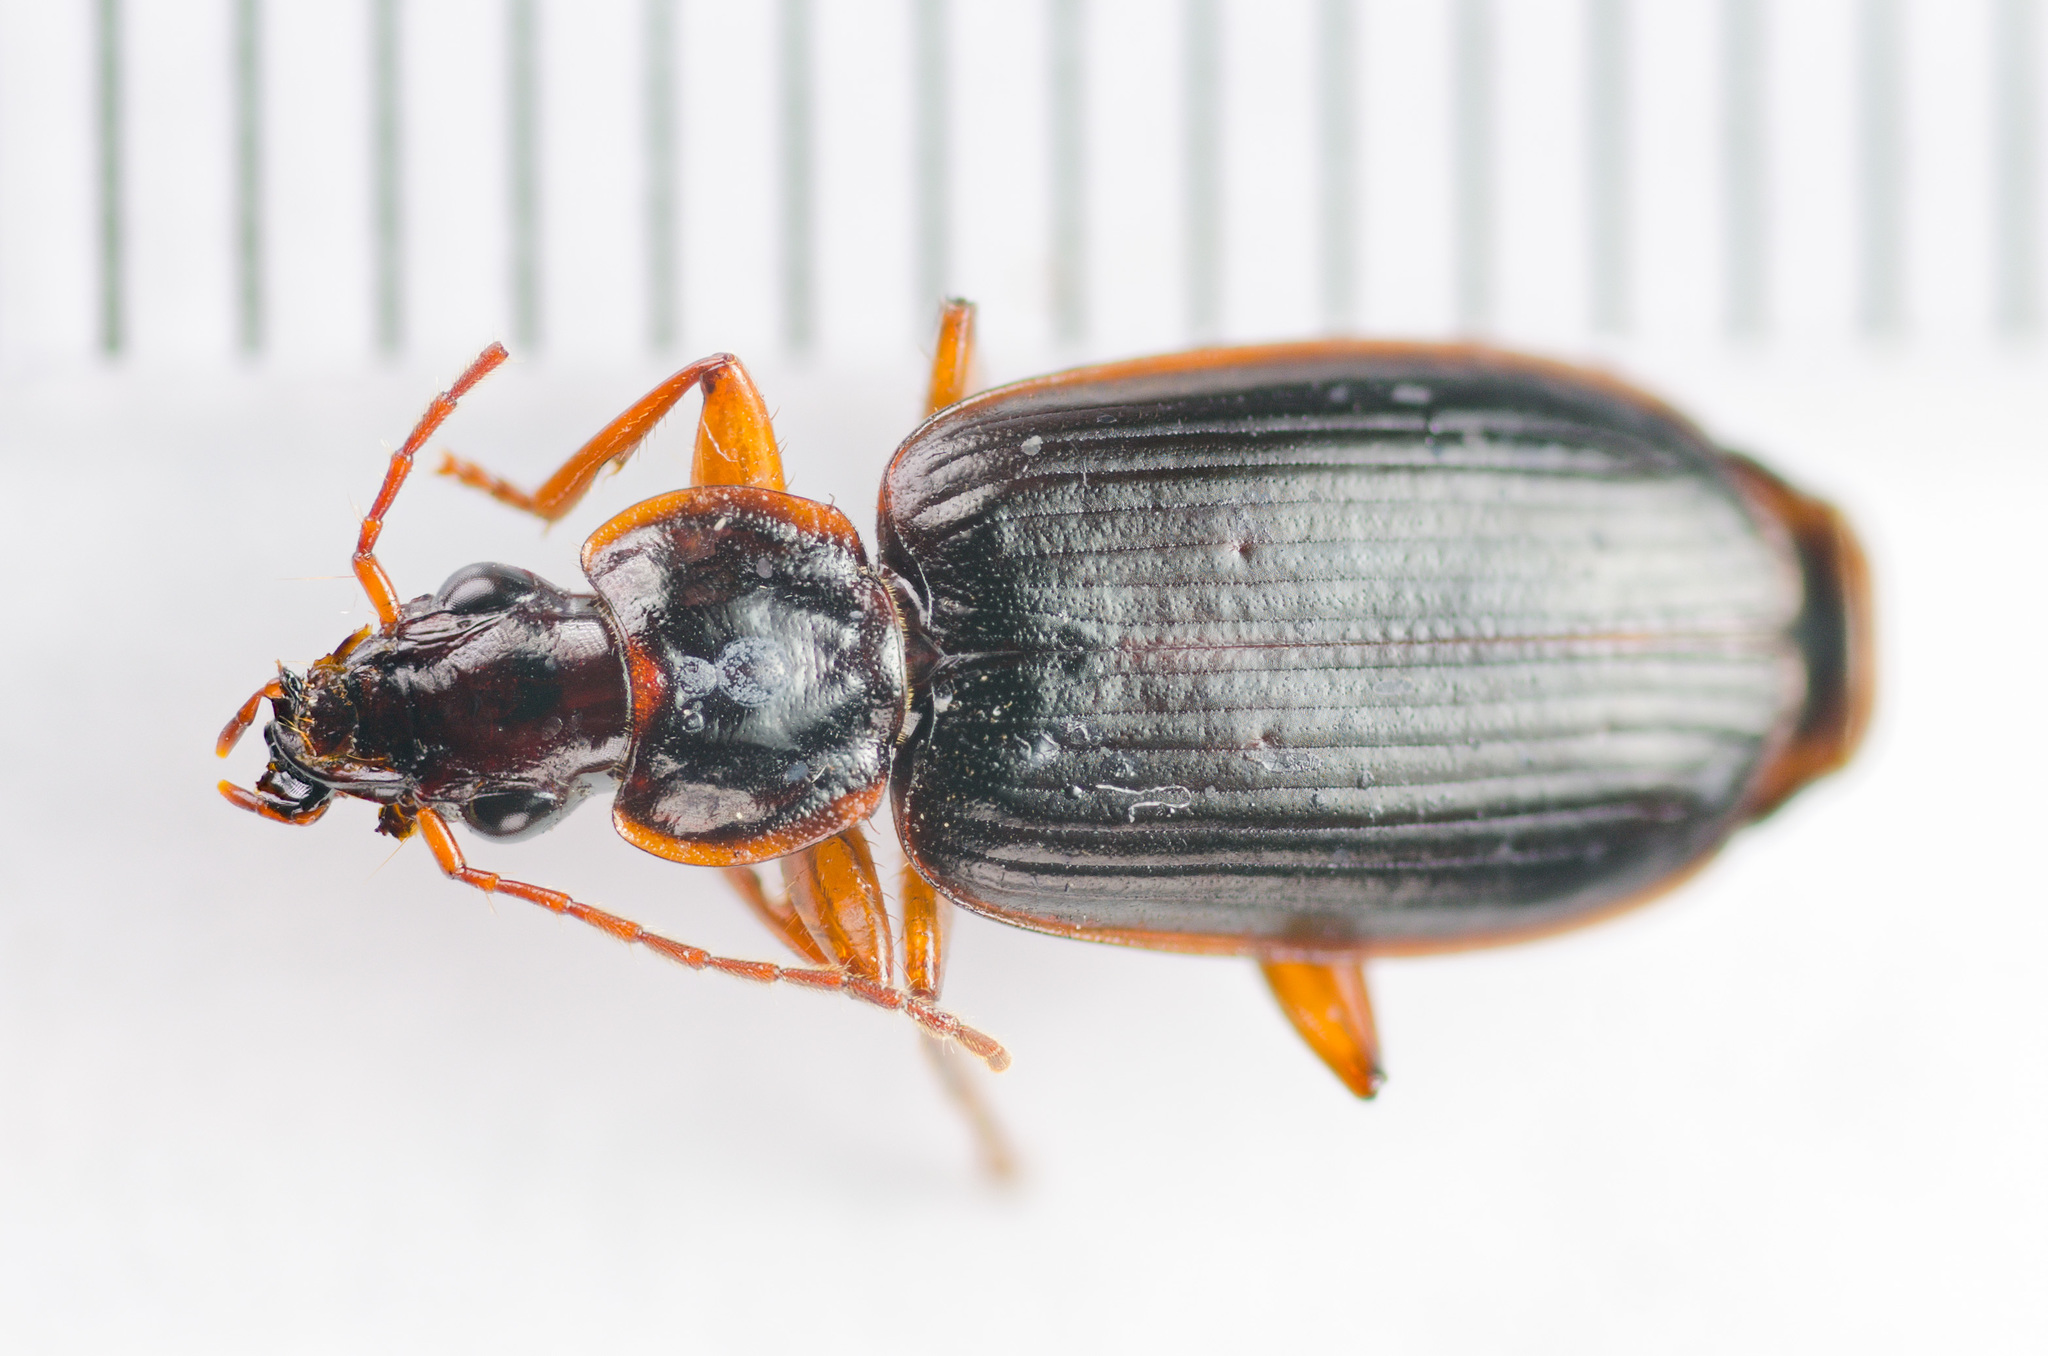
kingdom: Animalia
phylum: Arthropoda
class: Insecta
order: Coleoptera
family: Carabidae
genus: Pinacodera
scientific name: Pinacodera platicollis
